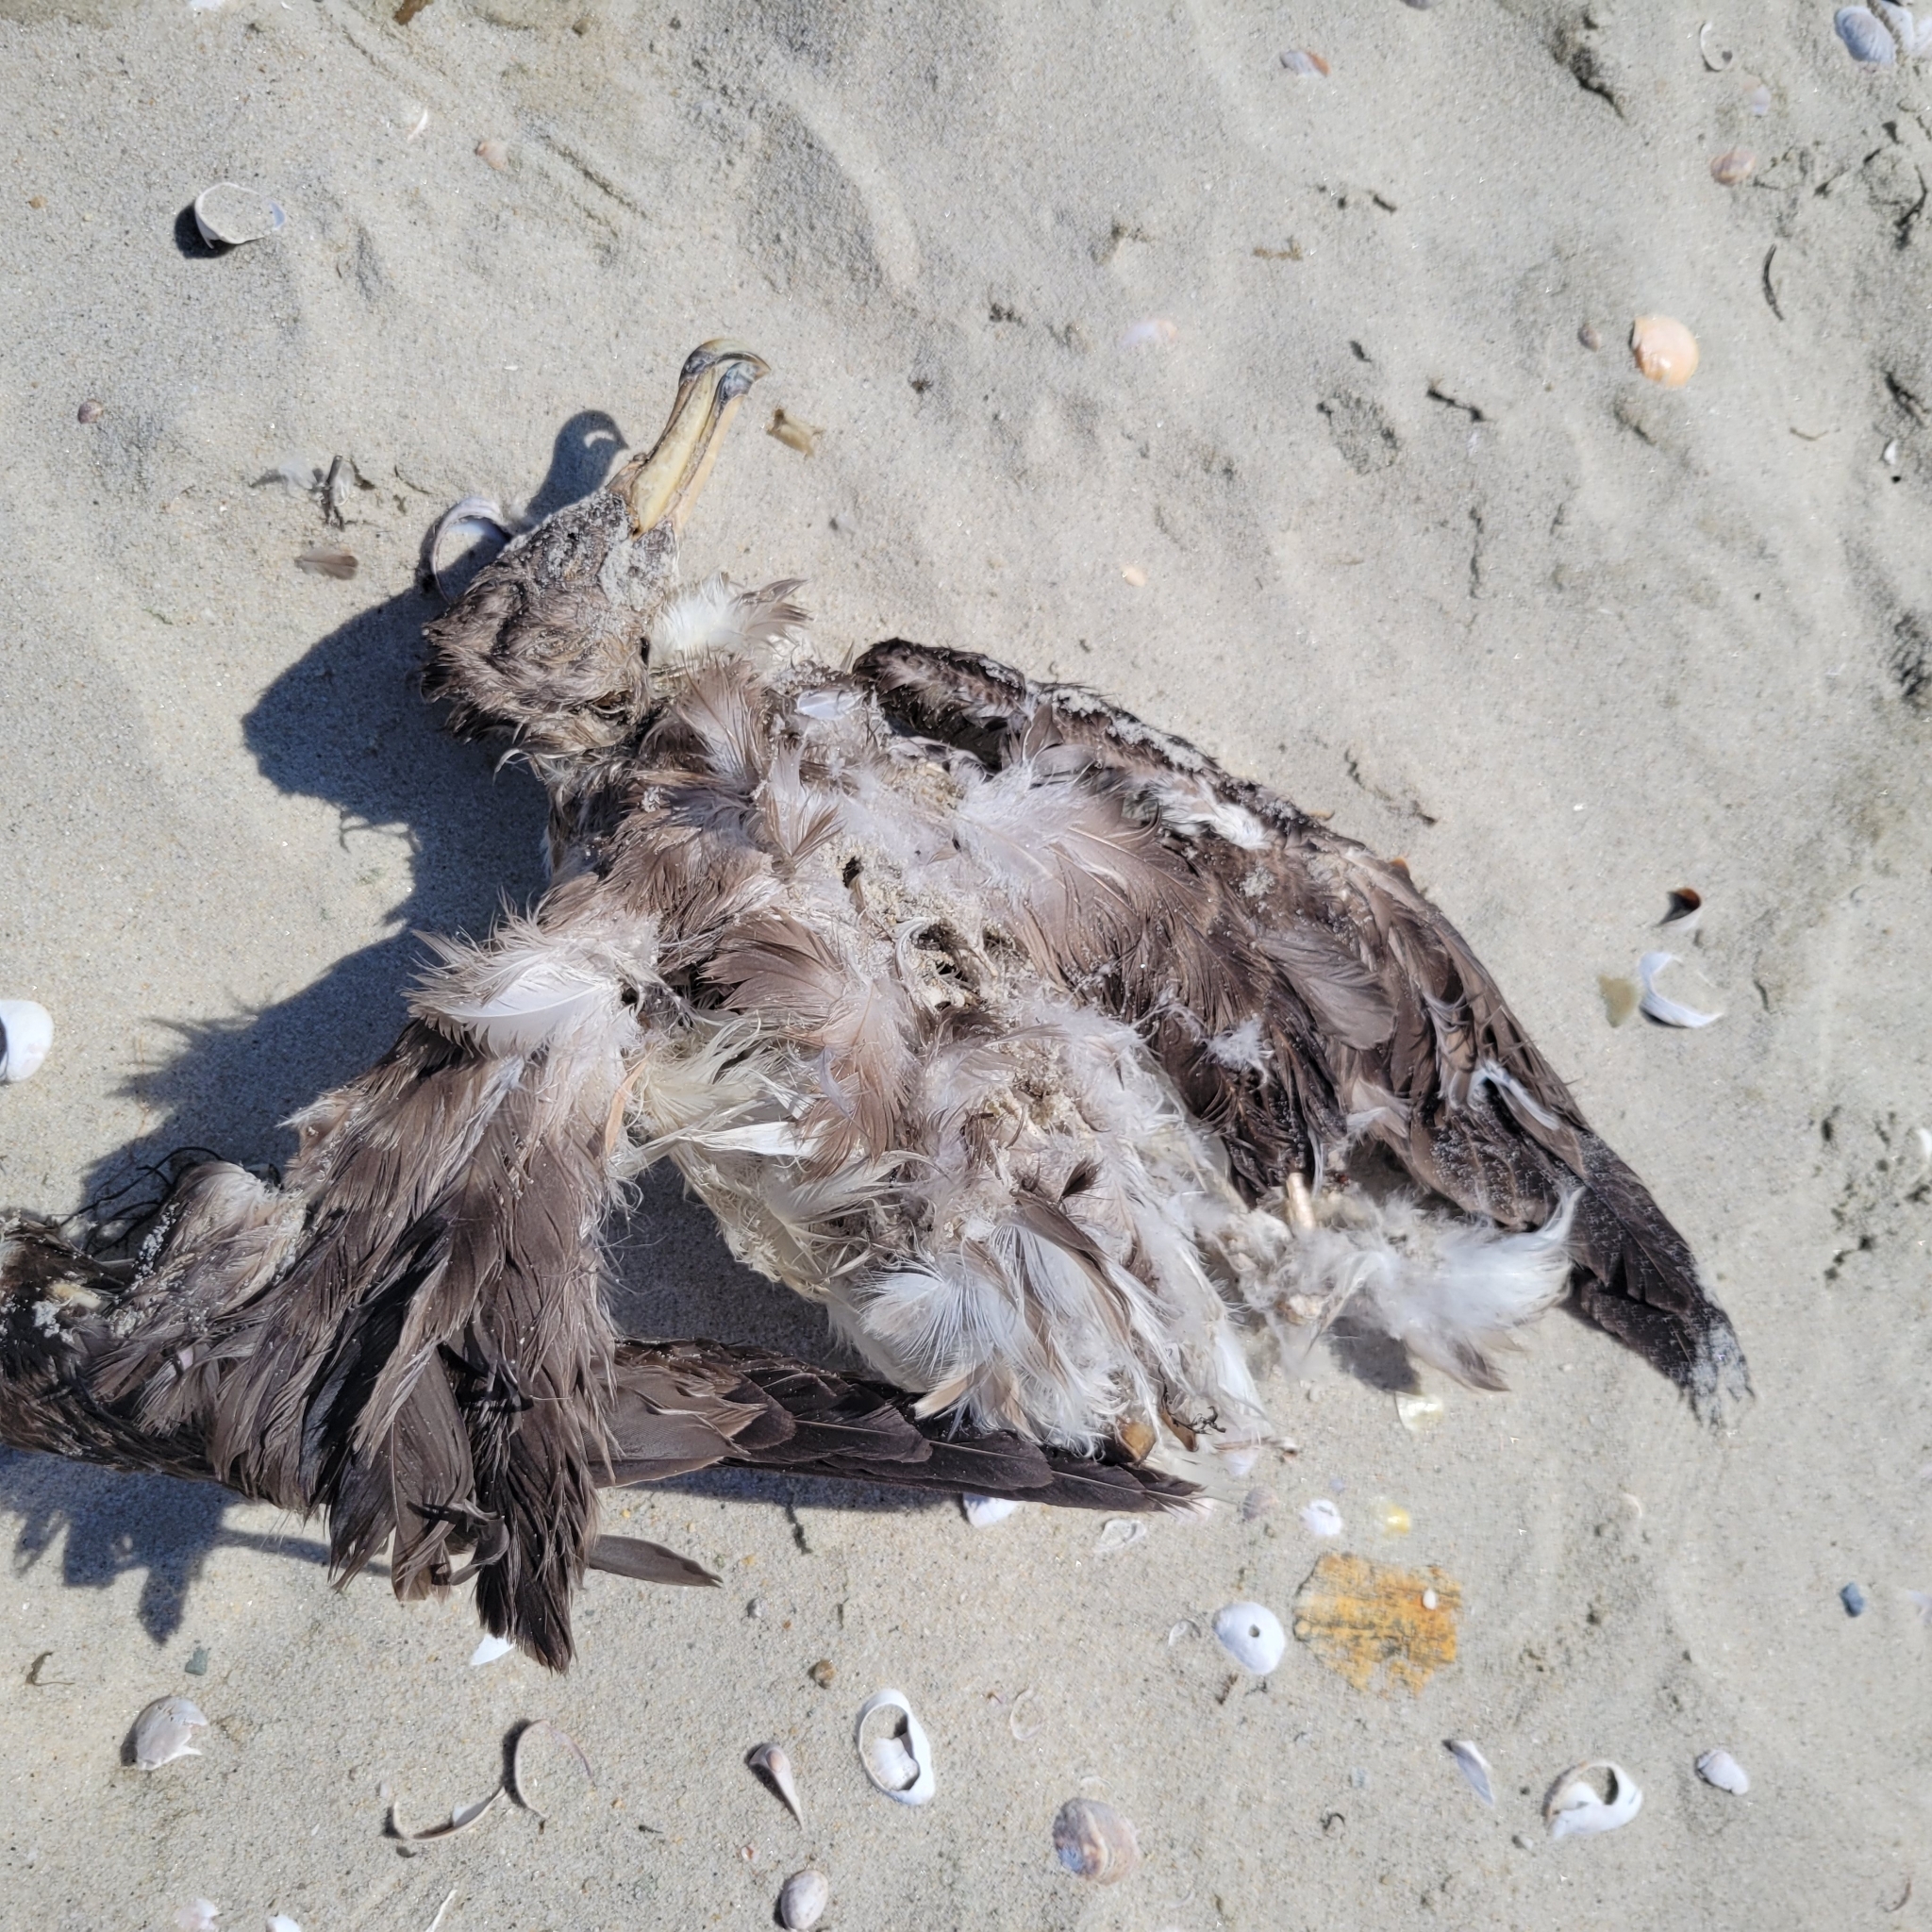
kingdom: Animalia
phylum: Chordata
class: Aves
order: Procellariiformes
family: Procellariidae
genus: Calonectris
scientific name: Calonectris diomedea
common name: Cory's shearwater
